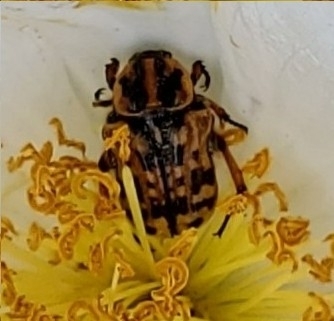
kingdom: Animalia
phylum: Arthropoda
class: Insecta
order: Coleoptera
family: Scarabaeidae
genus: Euphoria
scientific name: Euphoria kernii
